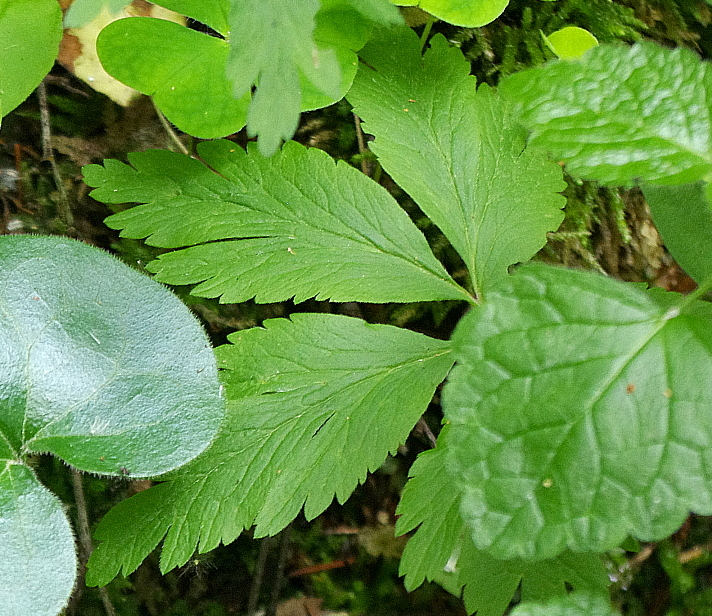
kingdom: Plantae
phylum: Tracheophyta
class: Magnoliopsida
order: Ranunculales
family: Ranunculaceae
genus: Anemone
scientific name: Anemone nemorosa
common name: Wood anemone
